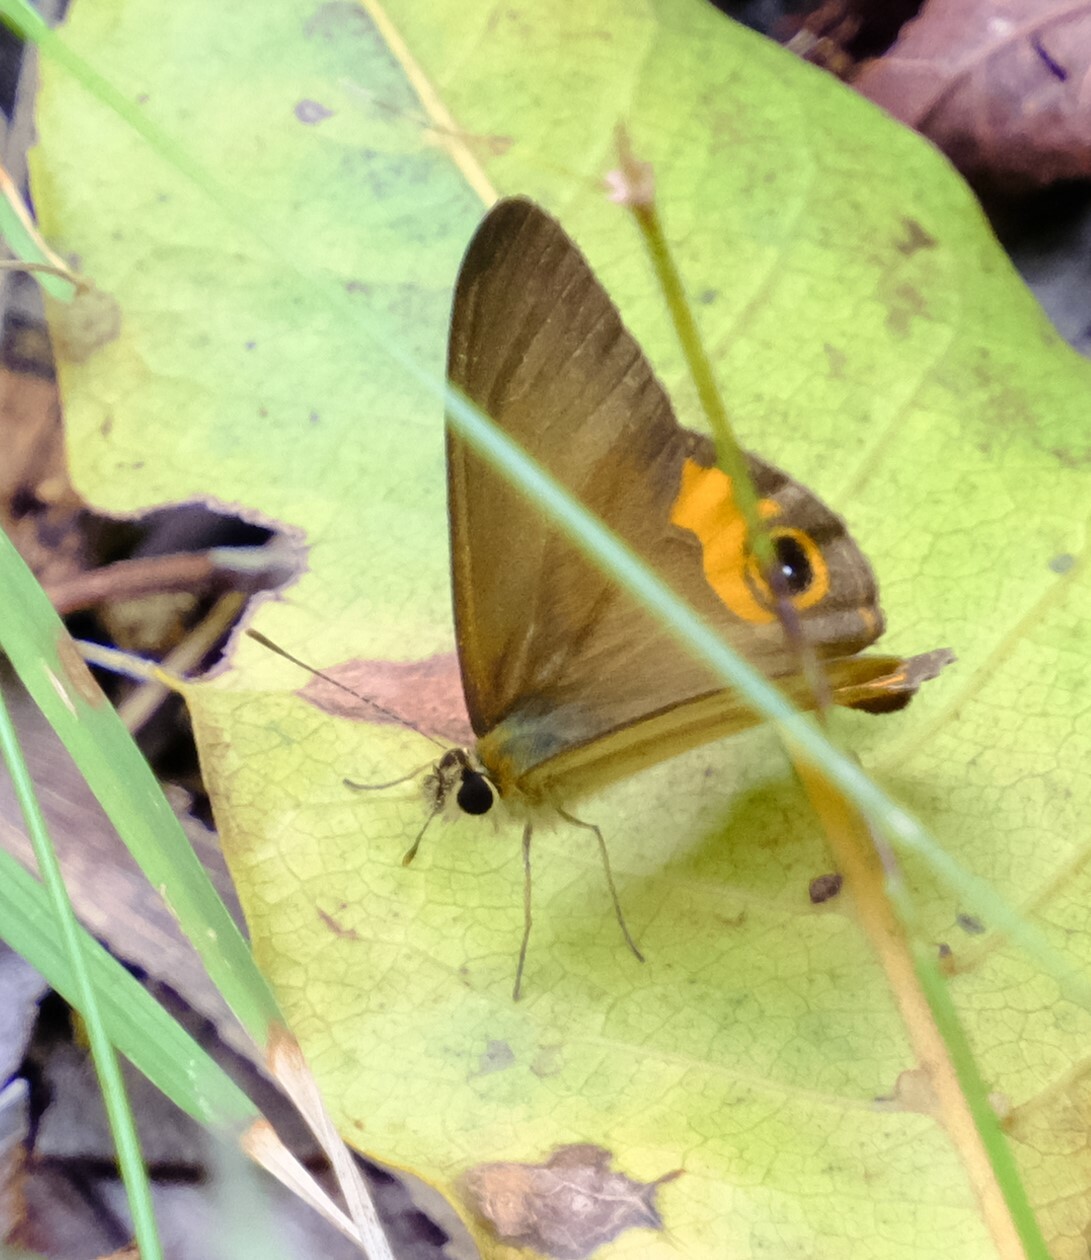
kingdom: Animalia
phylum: Arthropoda
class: Insecta
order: Lepidoptera
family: Nymphalidae
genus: Hypocysta
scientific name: Hypocysta metirius
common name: Brown ringlet
